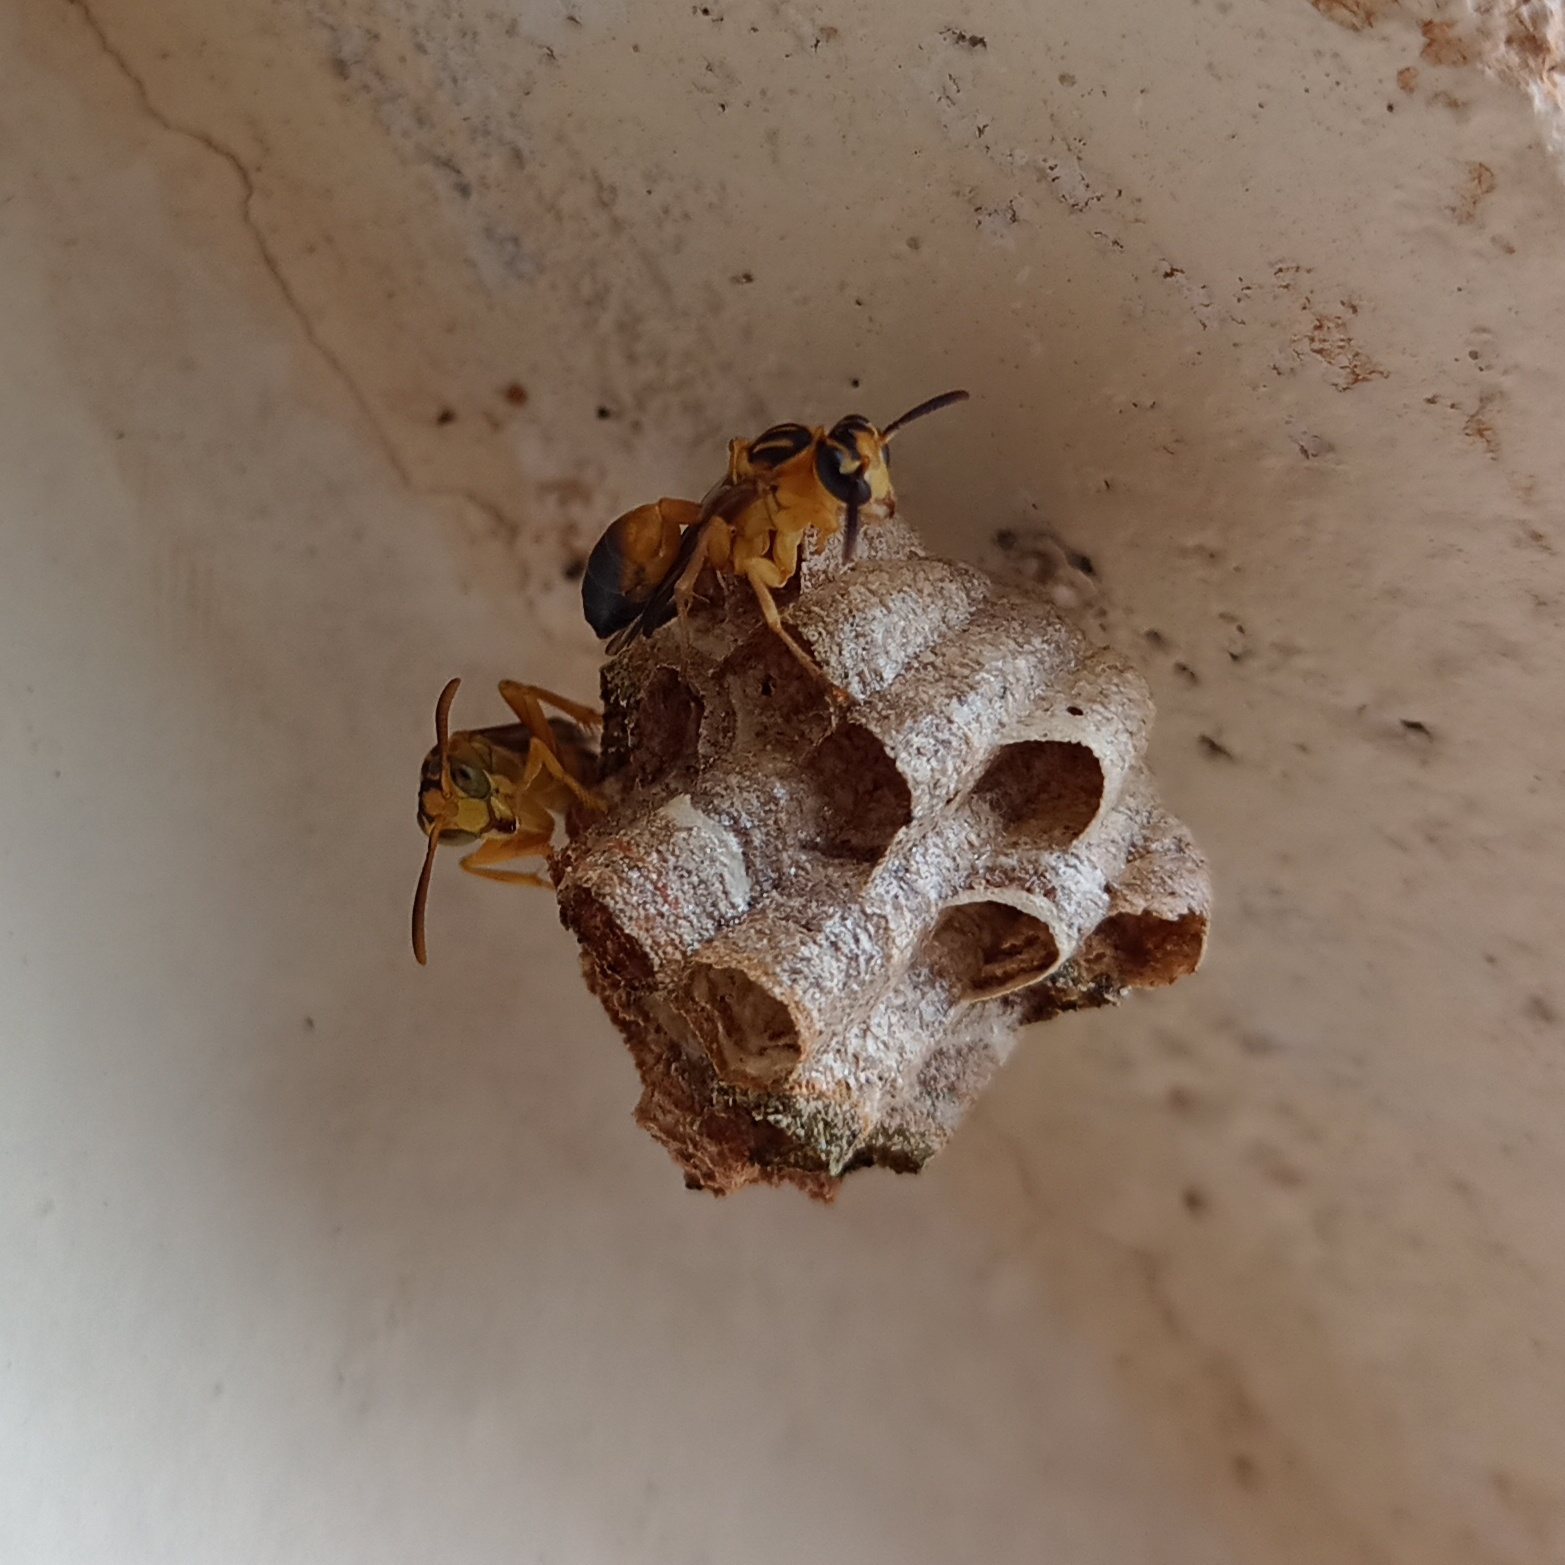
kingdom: Animalia
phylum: Arthropoda
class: Insecta
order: Hymenoptera
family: Vespidae
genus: Mischocyttarus
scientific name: Mischocyttarus cerberus
